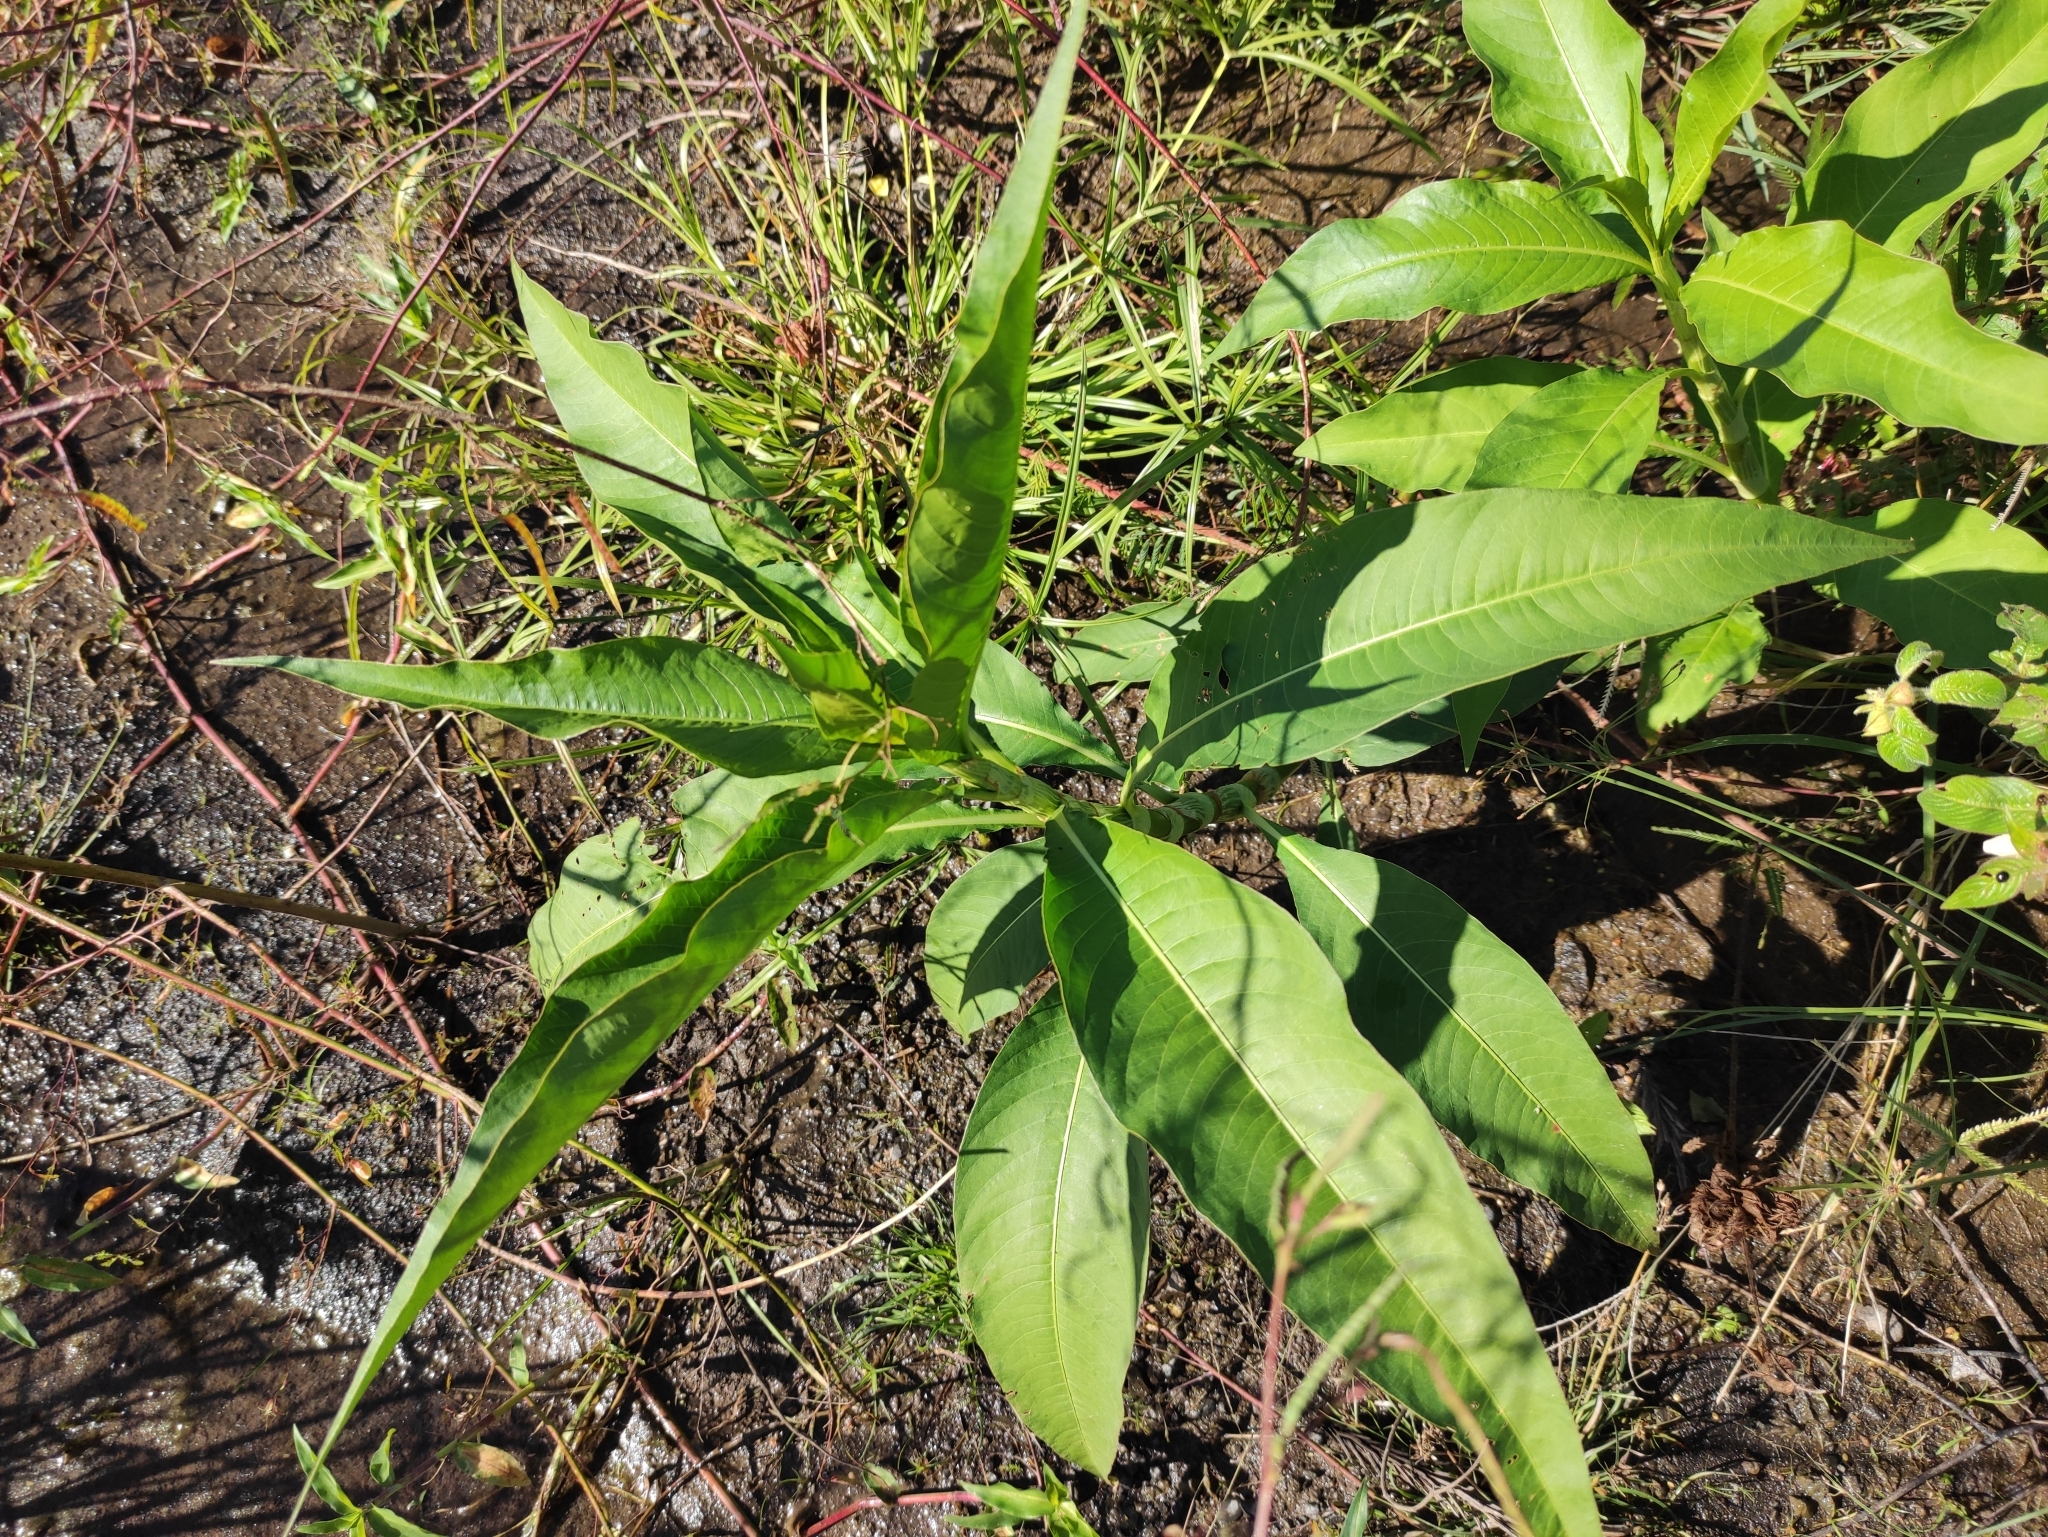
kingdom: Plantae
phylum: Tracheophyta
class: Magnoliopsida
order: Caryophyllales
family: Polygonaceae
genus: Persicaria
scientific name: Persicaria senegalensis
